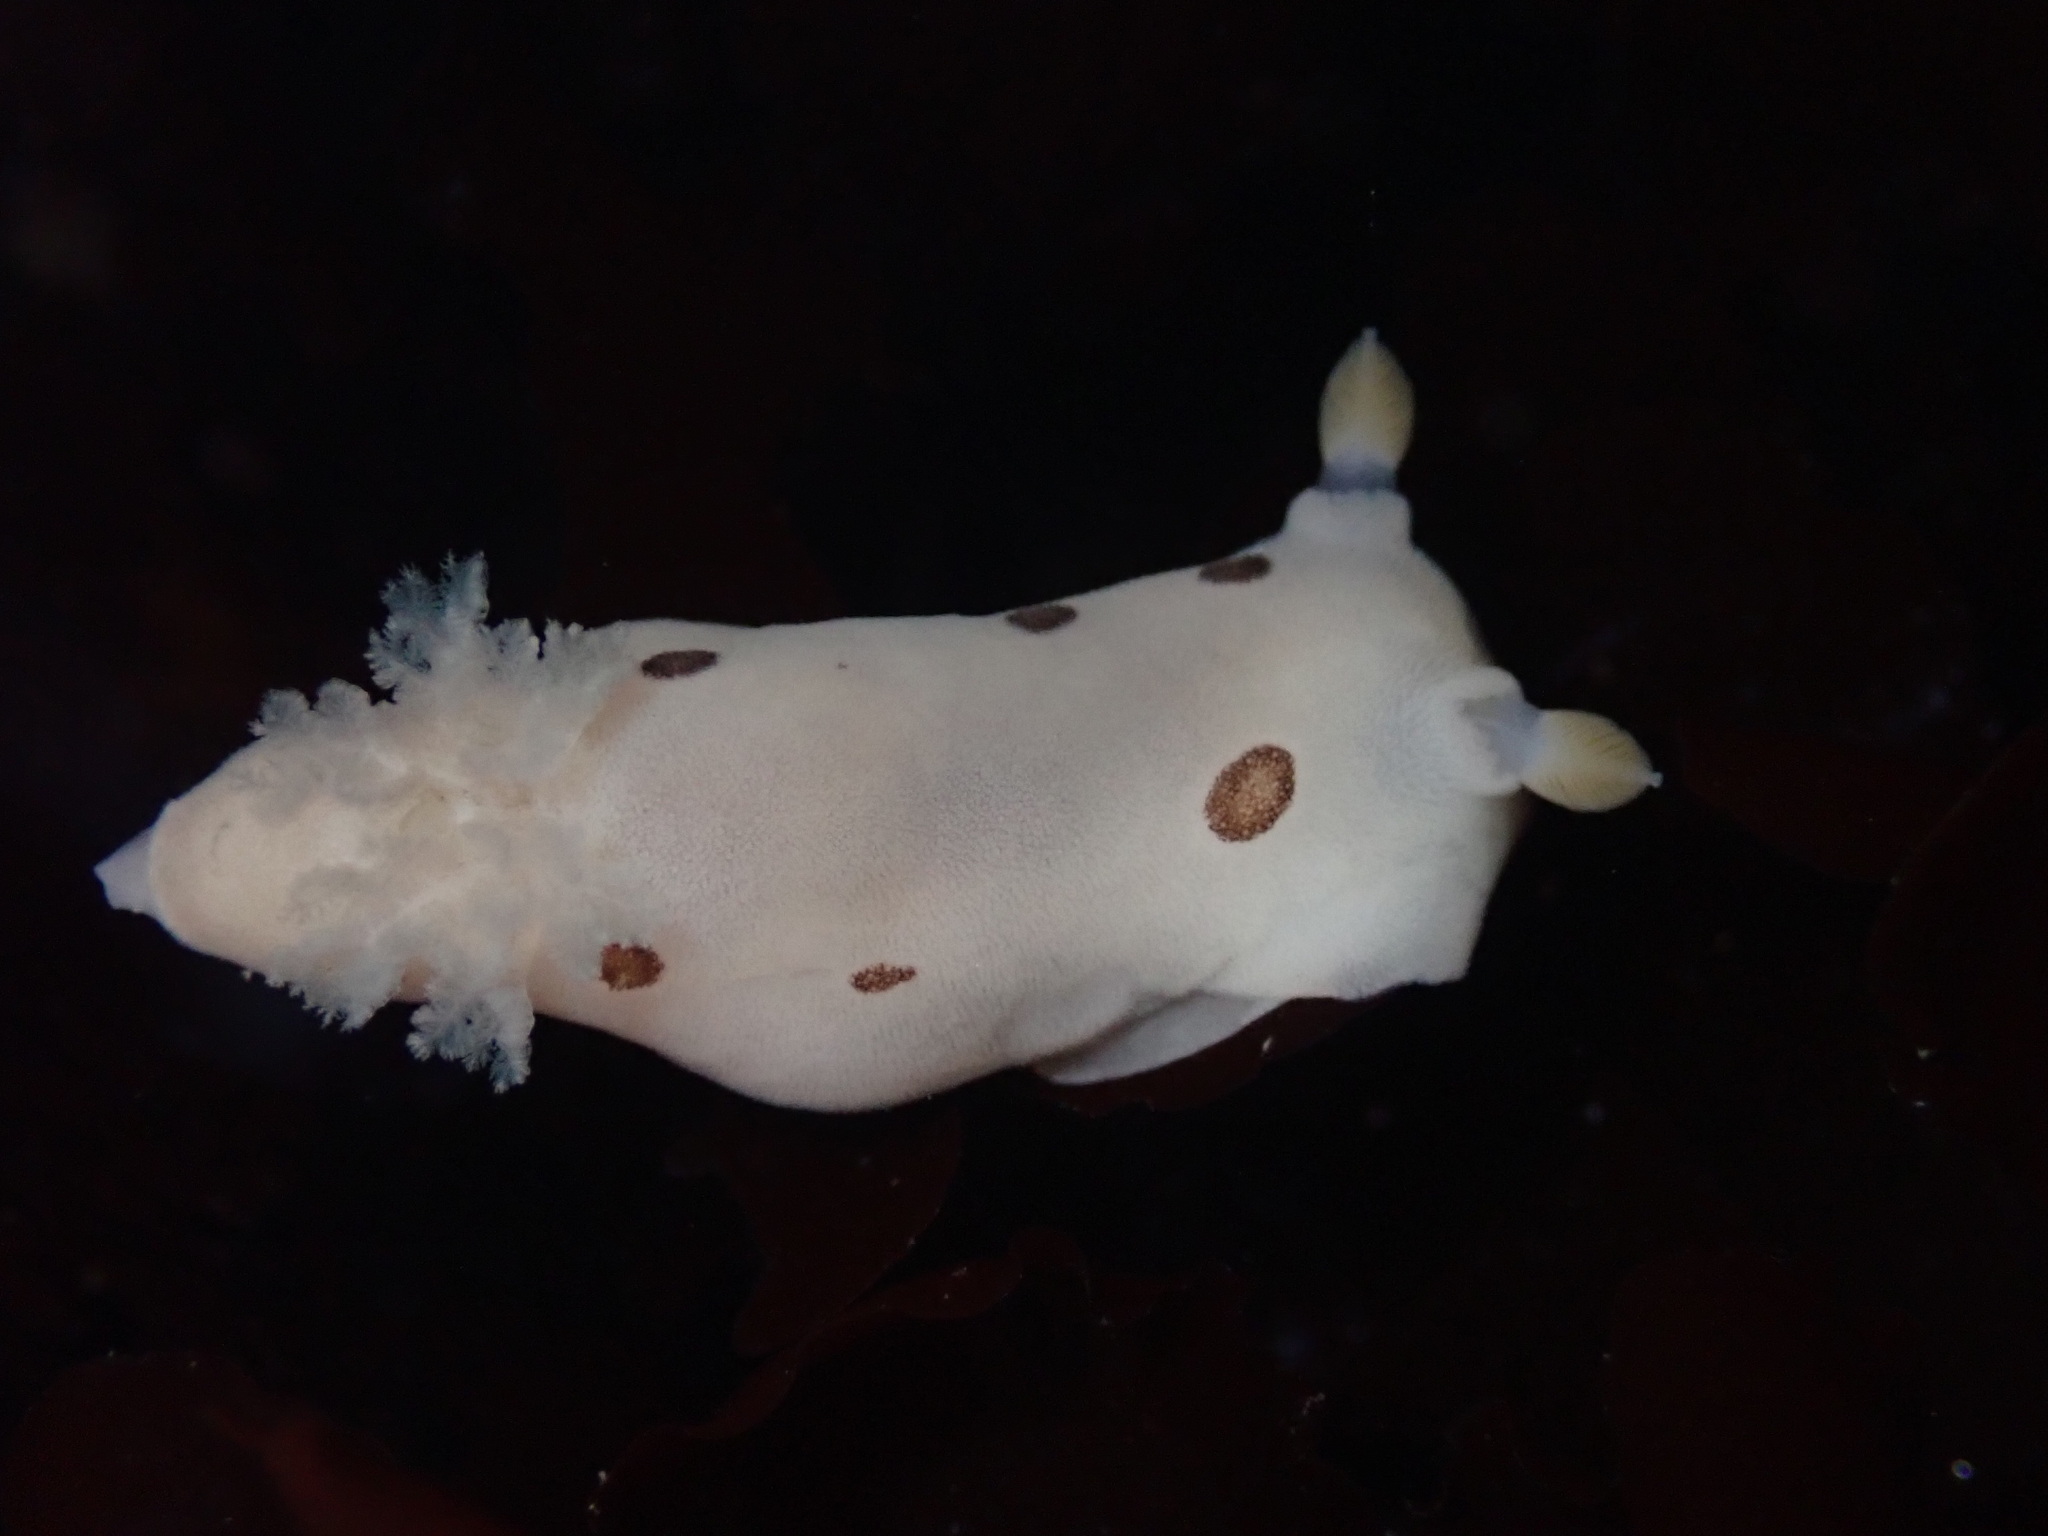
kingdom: Animalia
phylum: Mollusca
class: Gastropoda
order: Nudibranchia
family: Discodorididae
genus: Diaulula
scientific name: Diaulula sandiegensis
